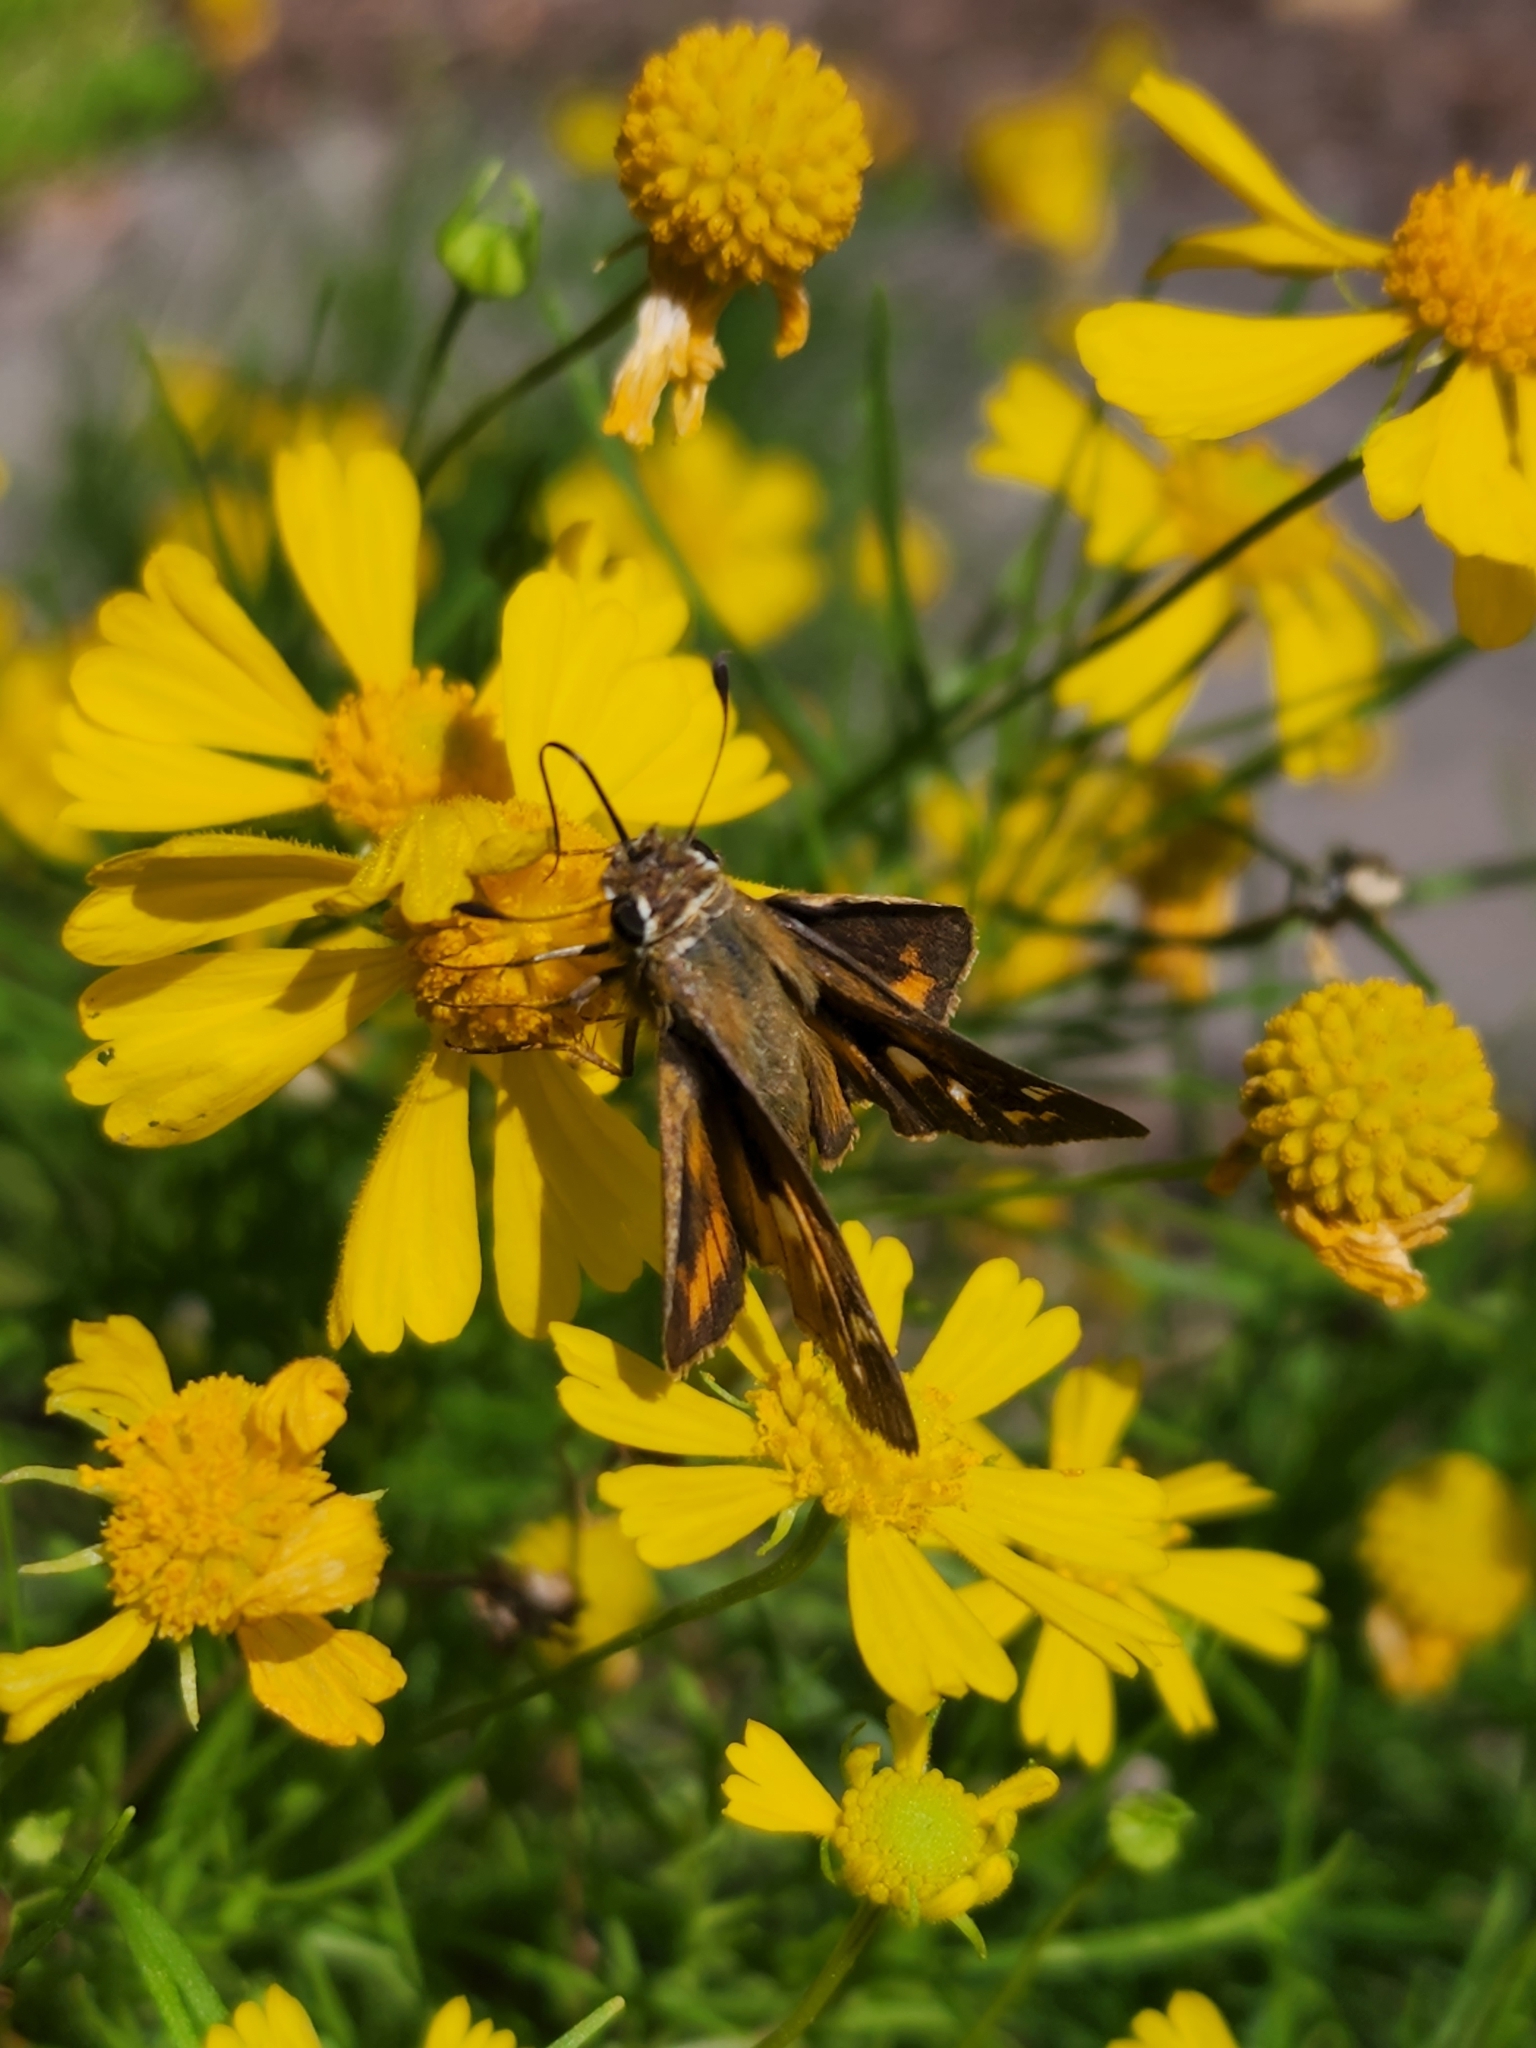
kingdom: Animalia
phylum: Arthropoda
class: Insecta
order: Lepidoptera
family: Hesperiidae
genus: Atalopedes
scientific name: Atalopedes
